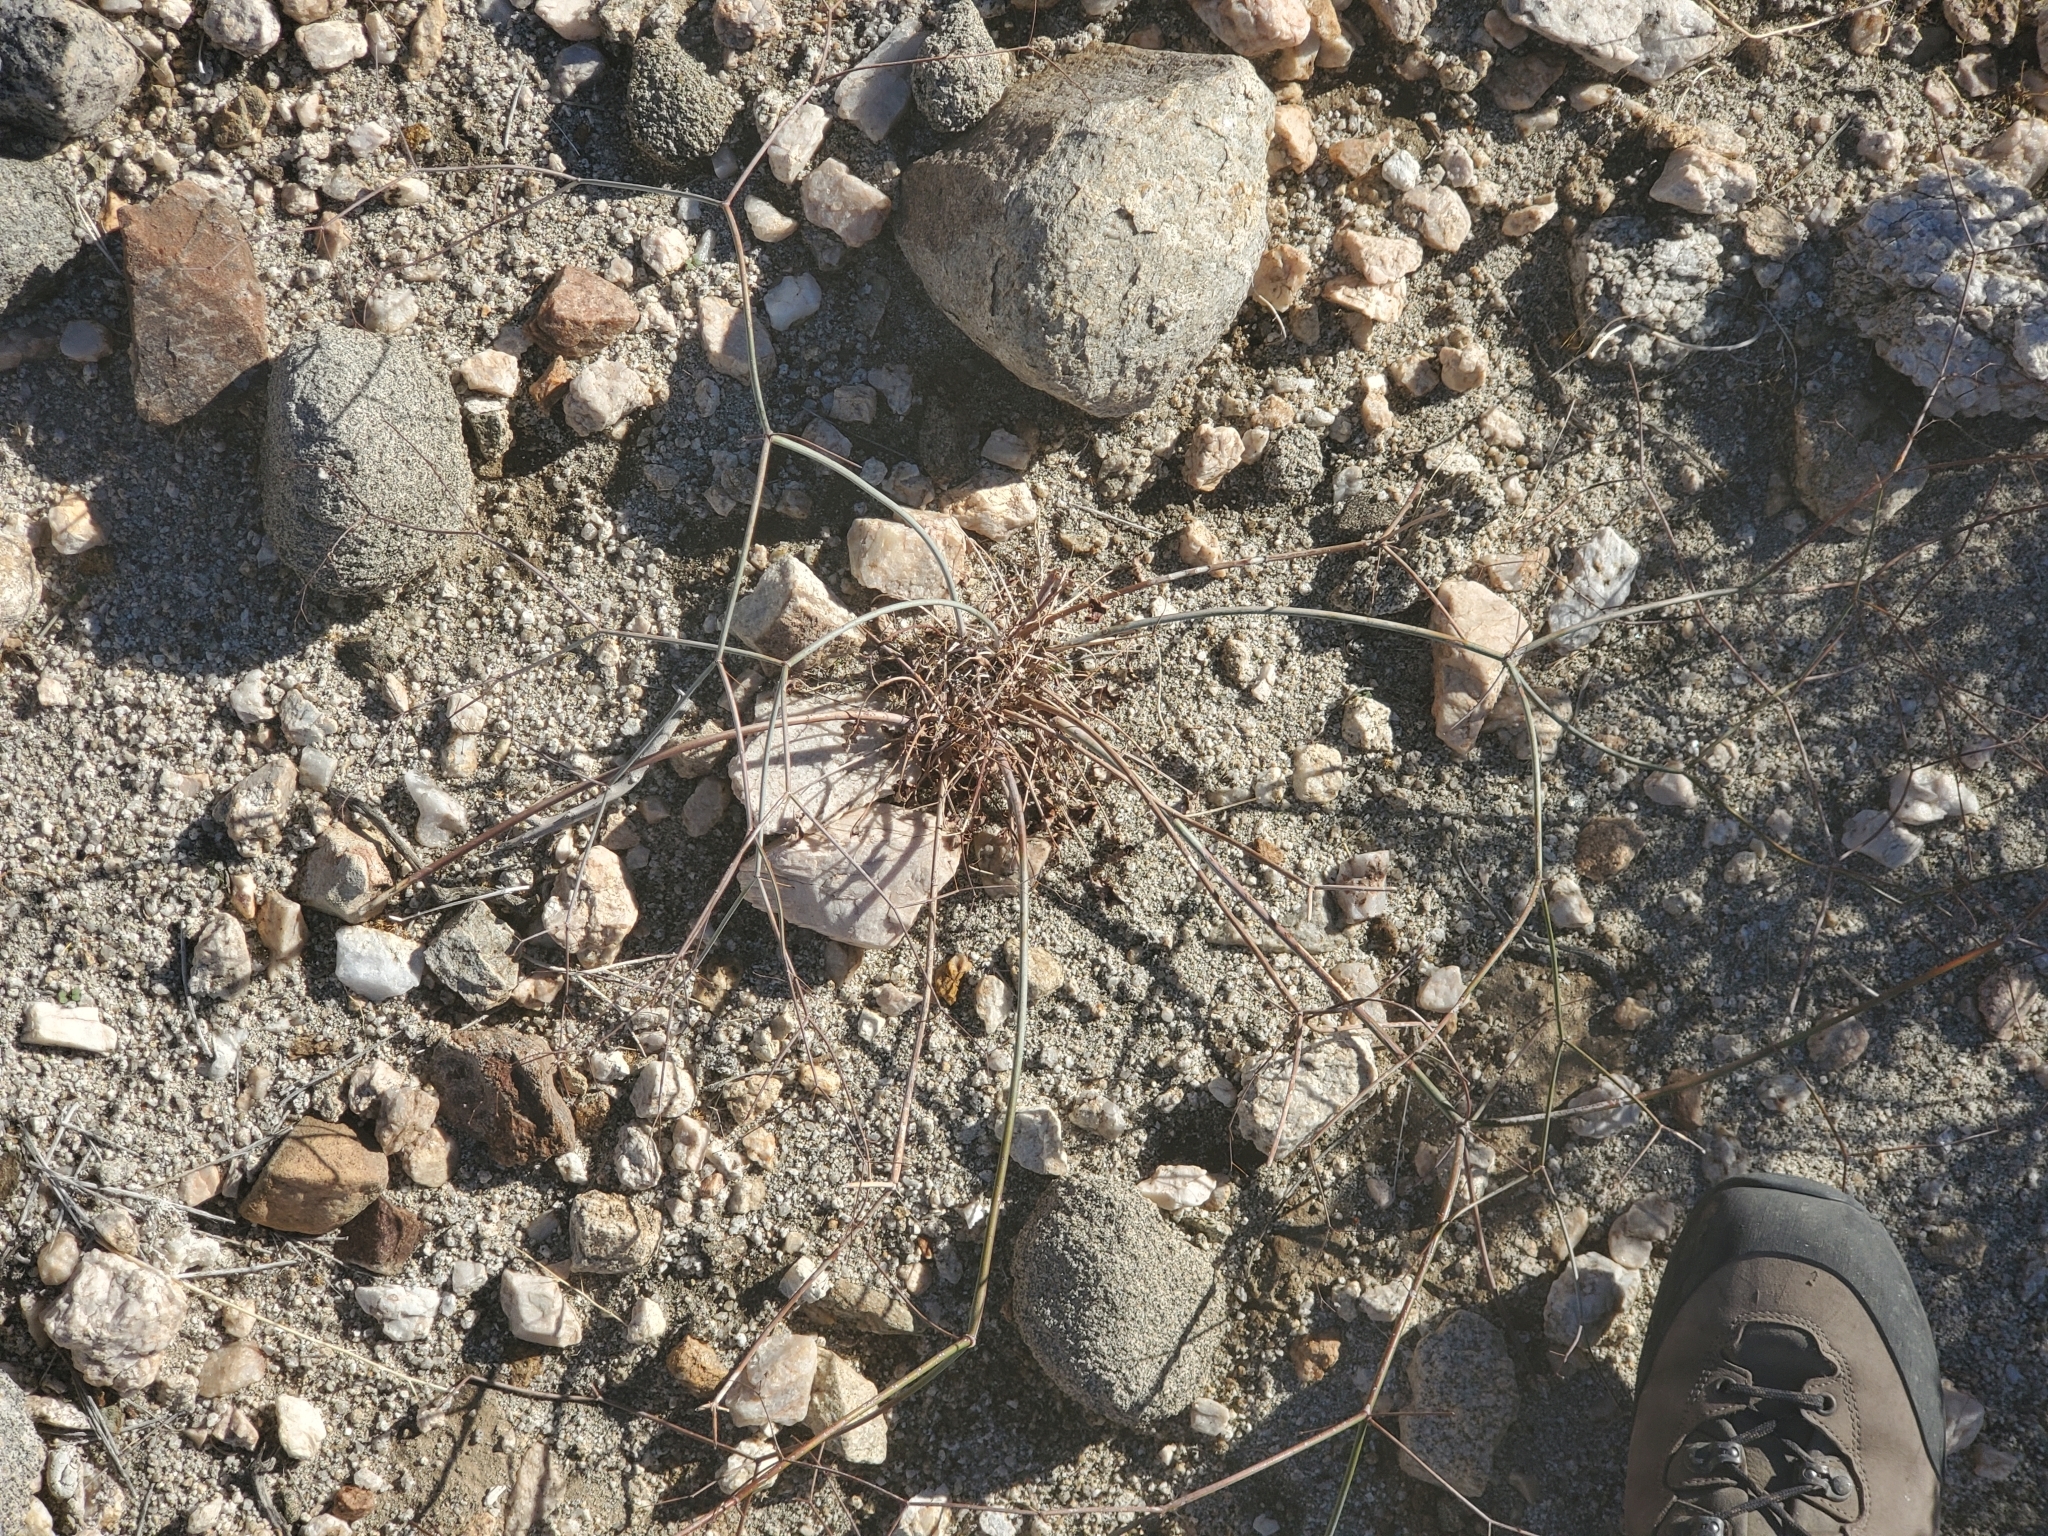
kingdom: Plantae
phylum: Tracheophyta
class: Magnoliopsida
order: Caryophyllales
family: Polygonaceae
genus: Eriogonum
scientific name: Eriogonum inflatum
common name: Desert trumpet
